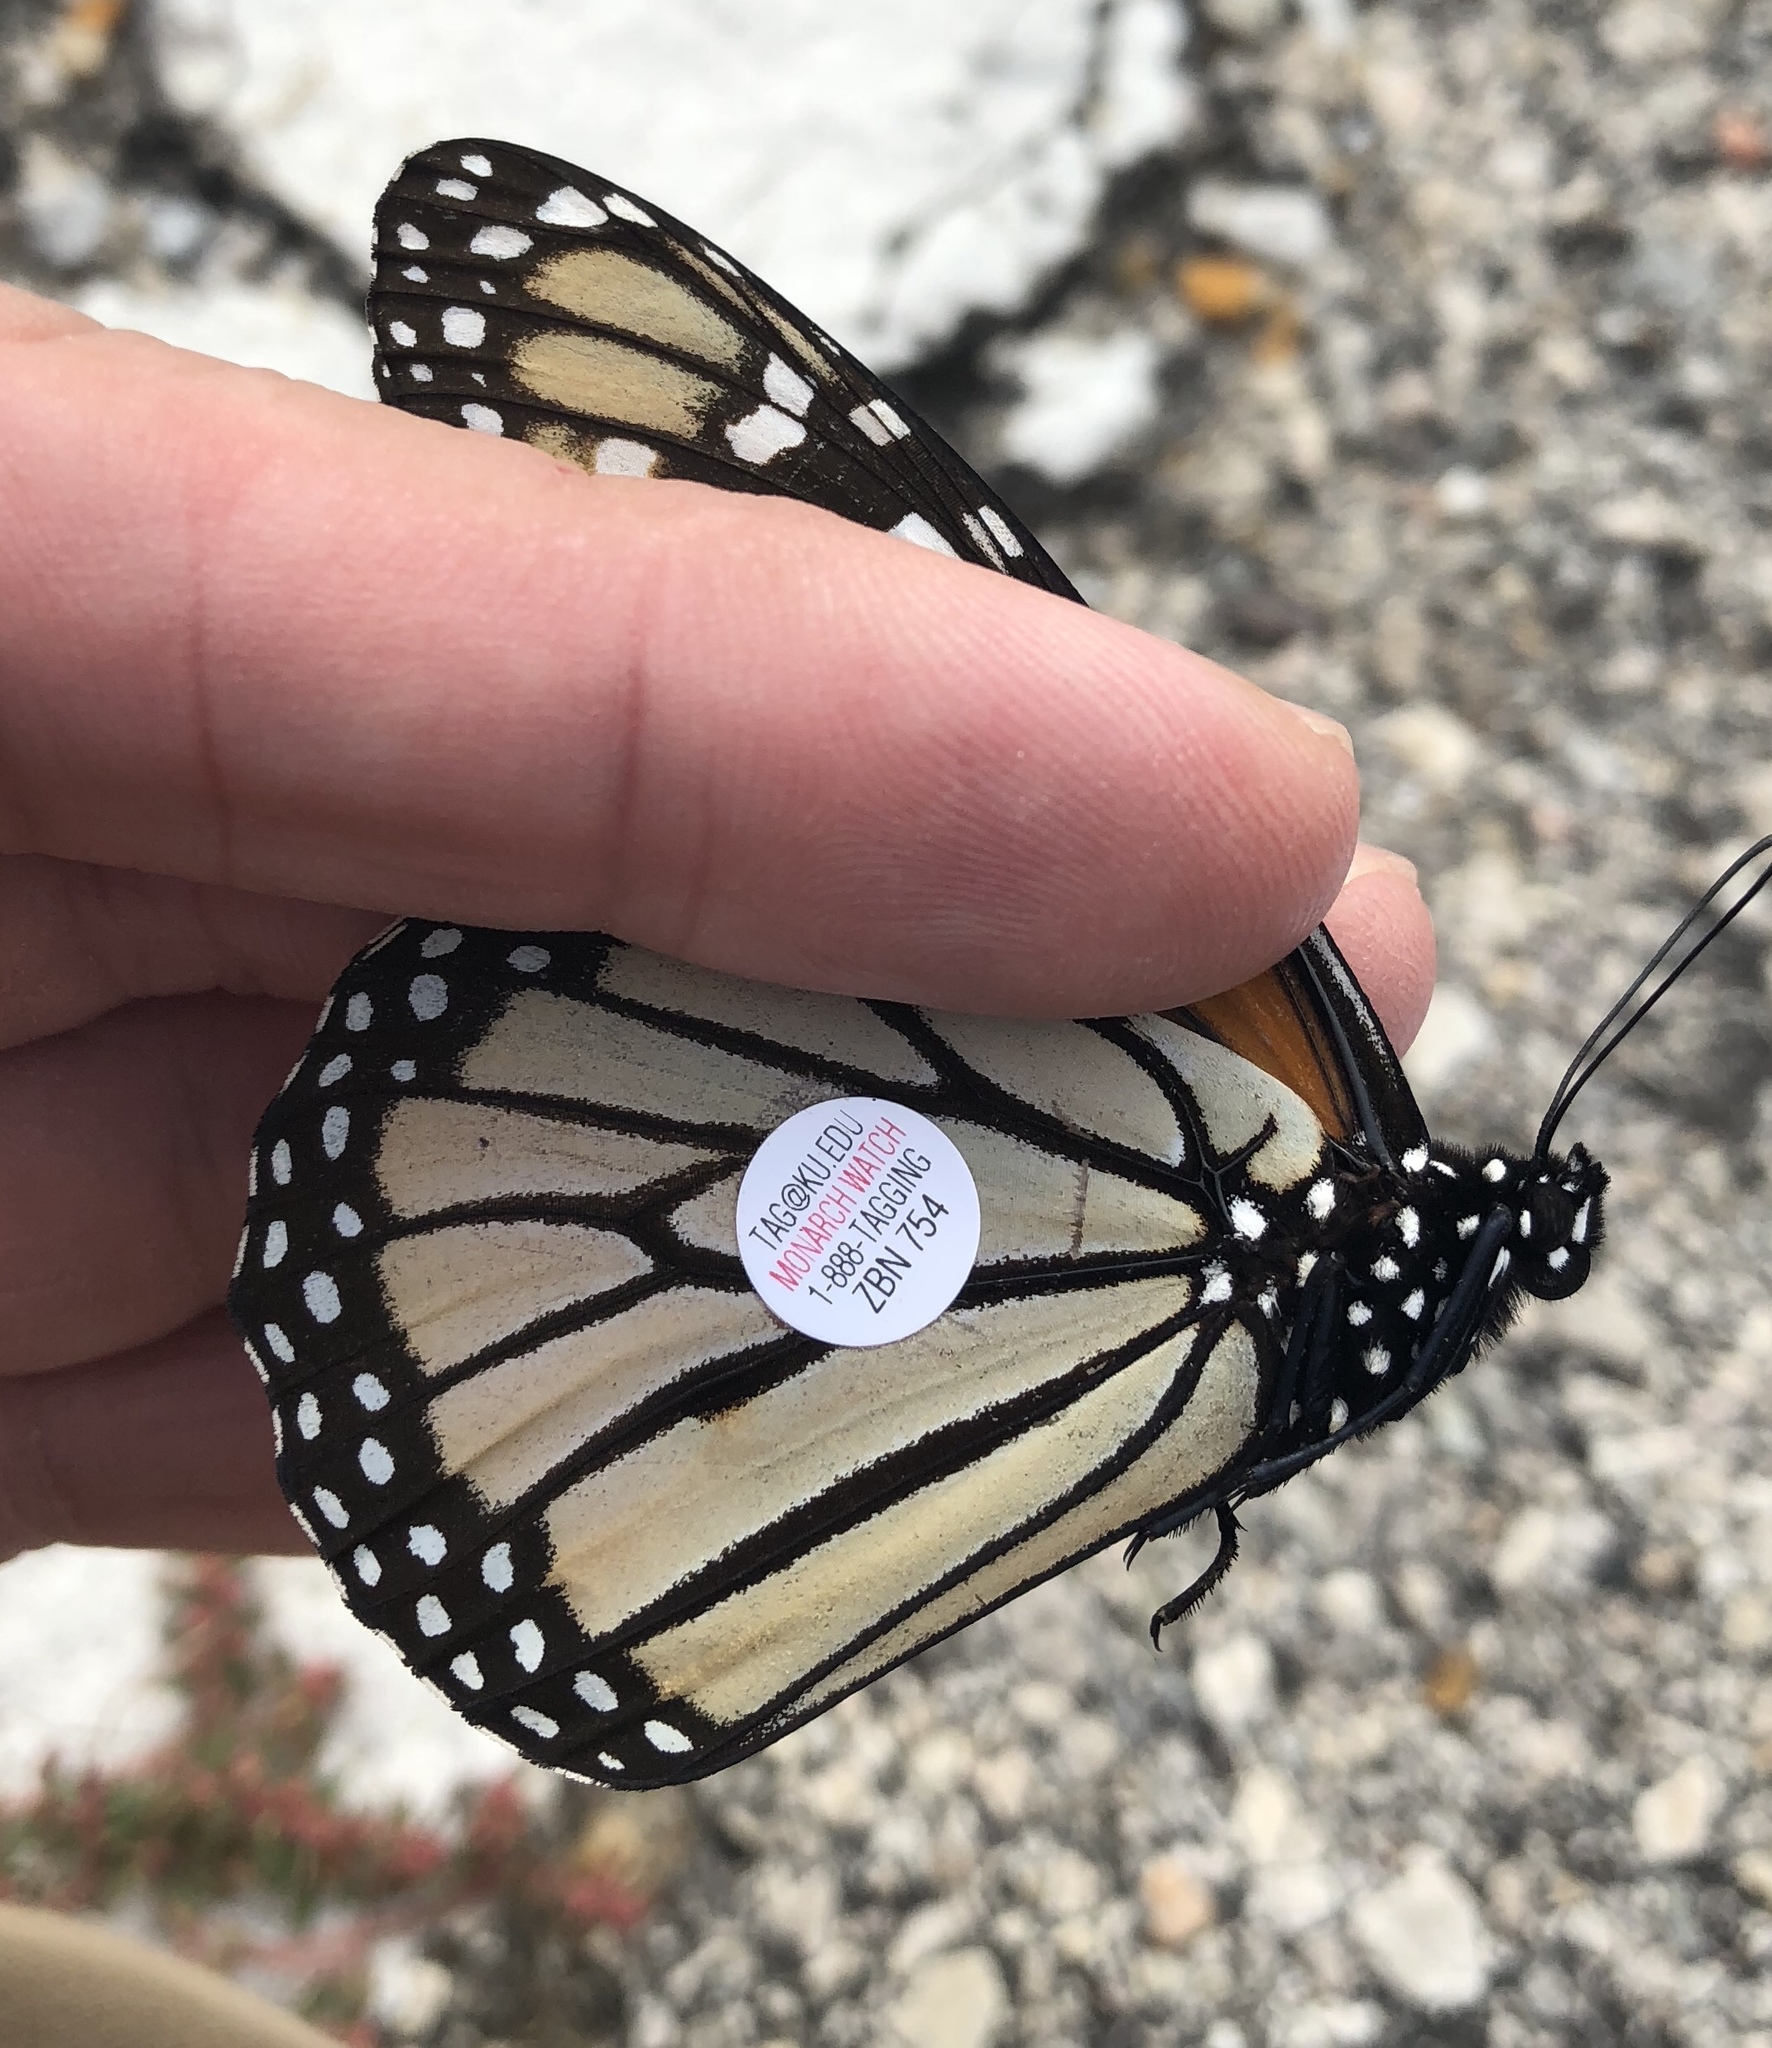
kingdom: Animalia
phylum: Arthropoda
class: Insecta
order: Lepidoptera
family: Nymphalidae
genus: Danaus
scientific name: Danaus plexippus
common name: Monarch
